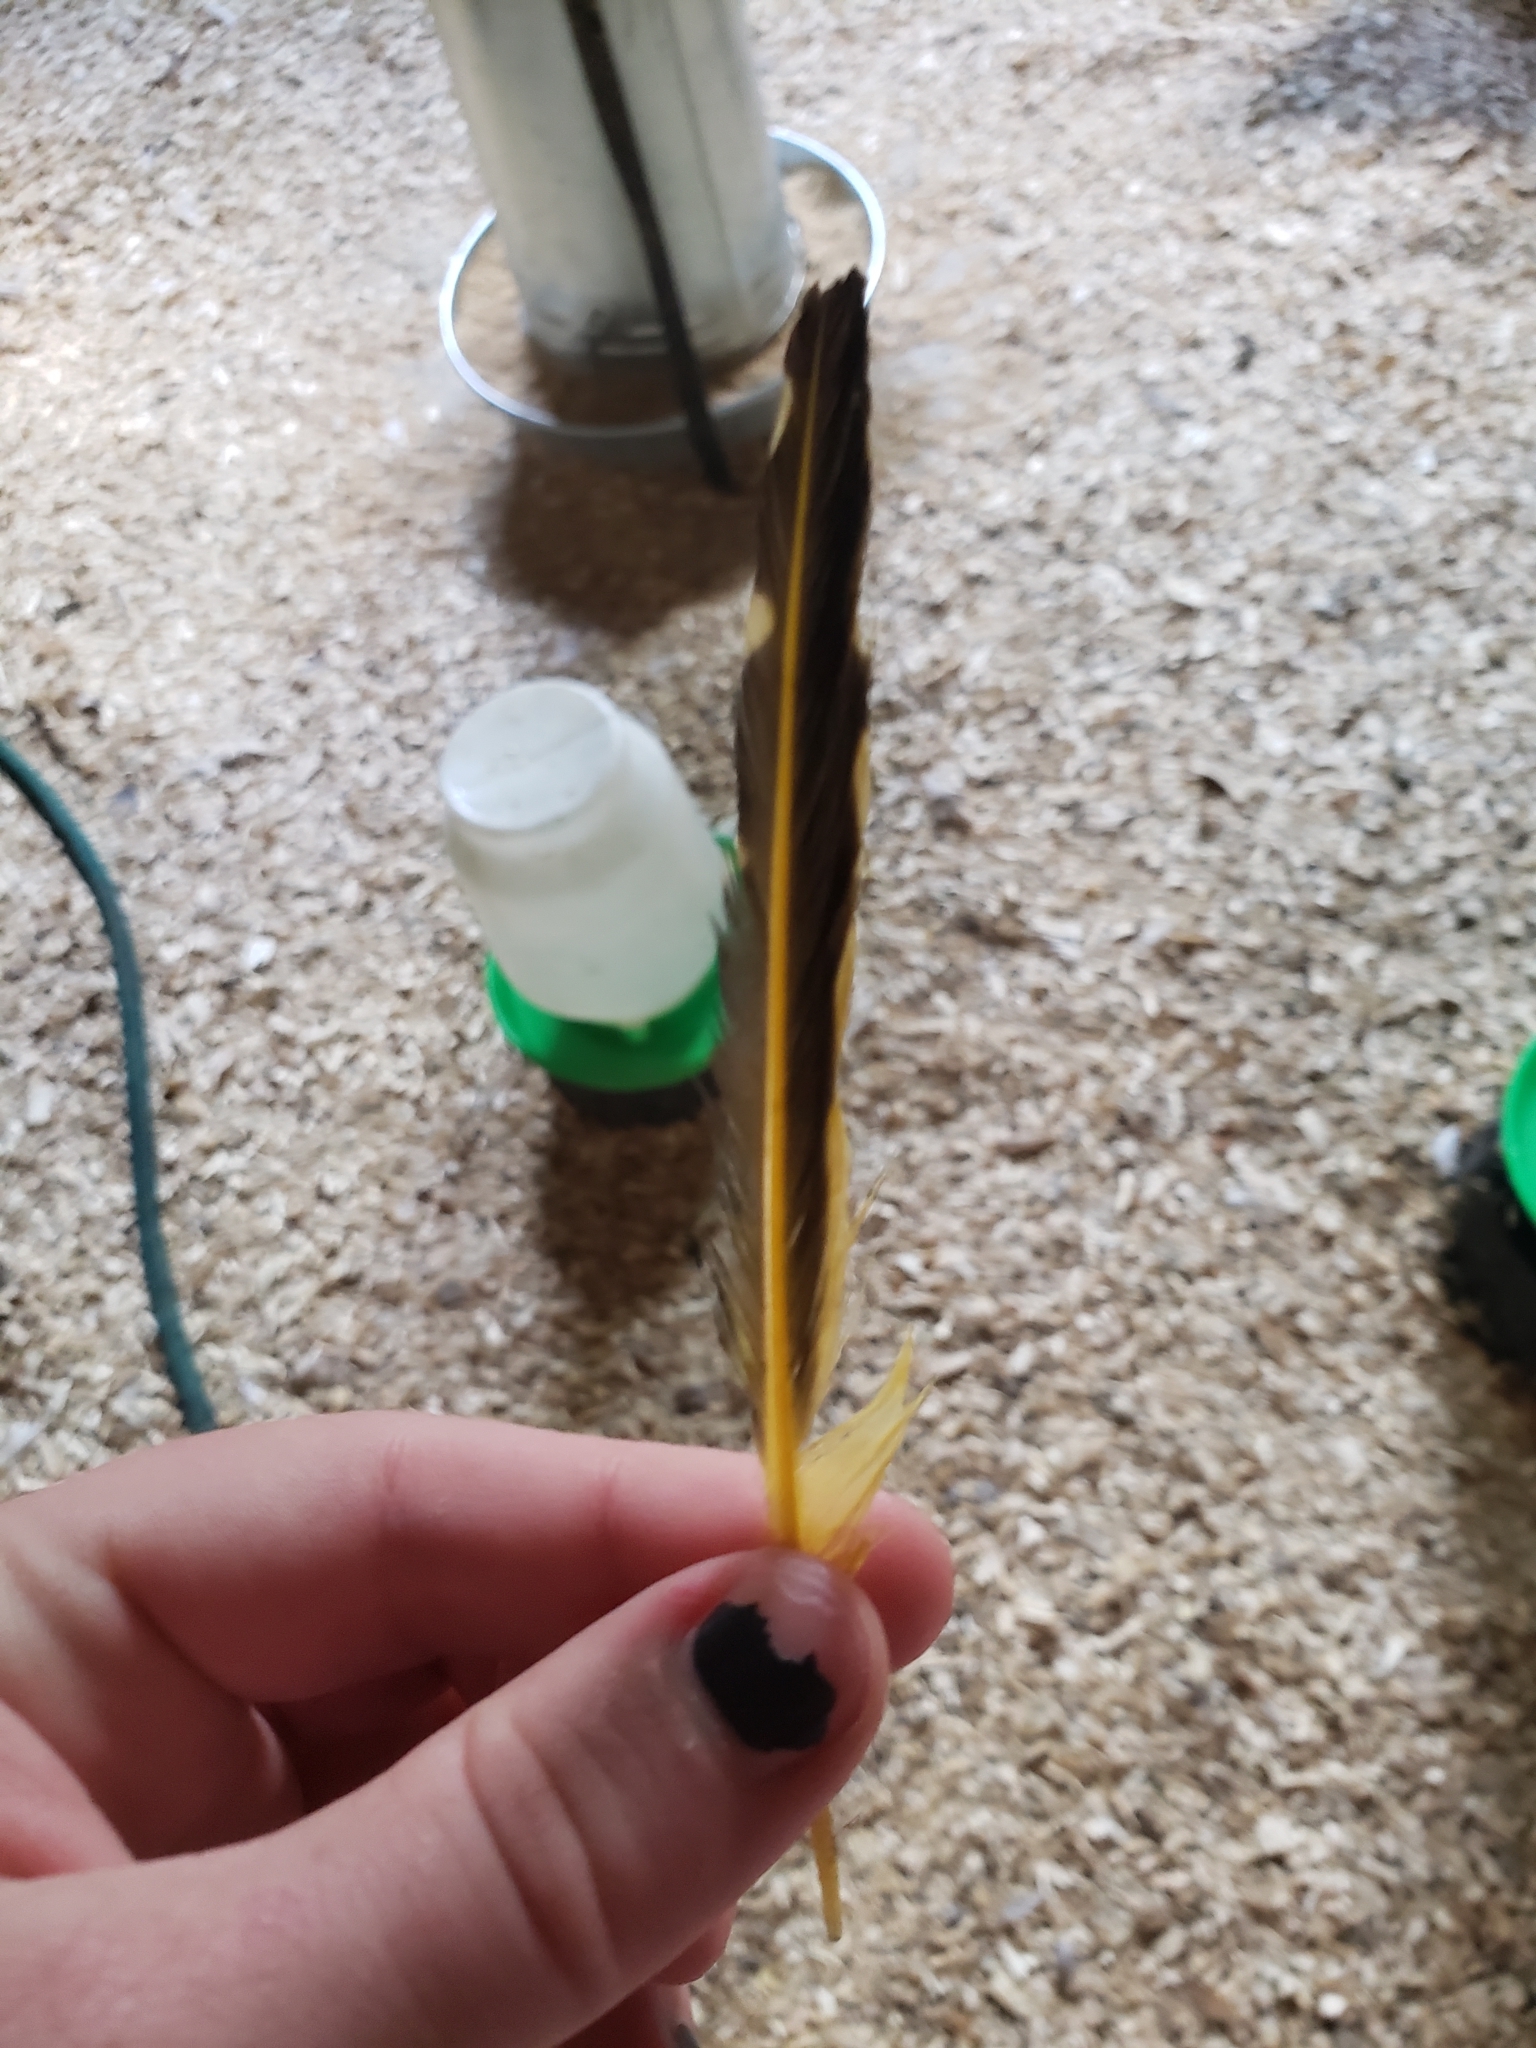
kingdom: Animalia
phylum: Chordata
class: Aves
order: Piciformes
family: Picidae
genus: Colaptes
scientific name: Colaptes auratus
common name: Northern flicker
